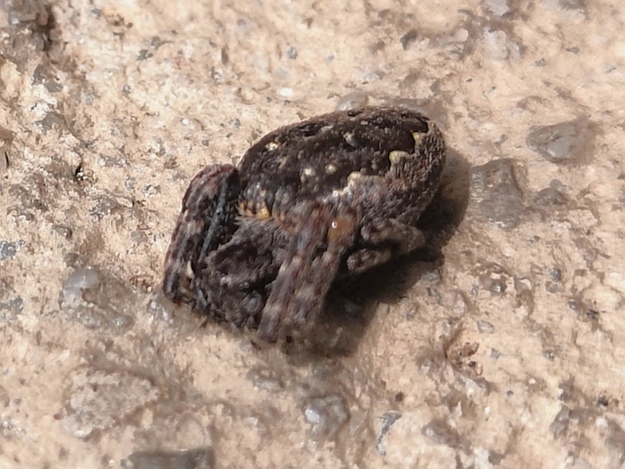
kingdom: Animalia
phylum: Arthropoda
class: Arachnida
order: Araneae
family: Araneidae
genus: Nuctenea
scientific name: Nuctenea umbratica
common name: Toad spider
